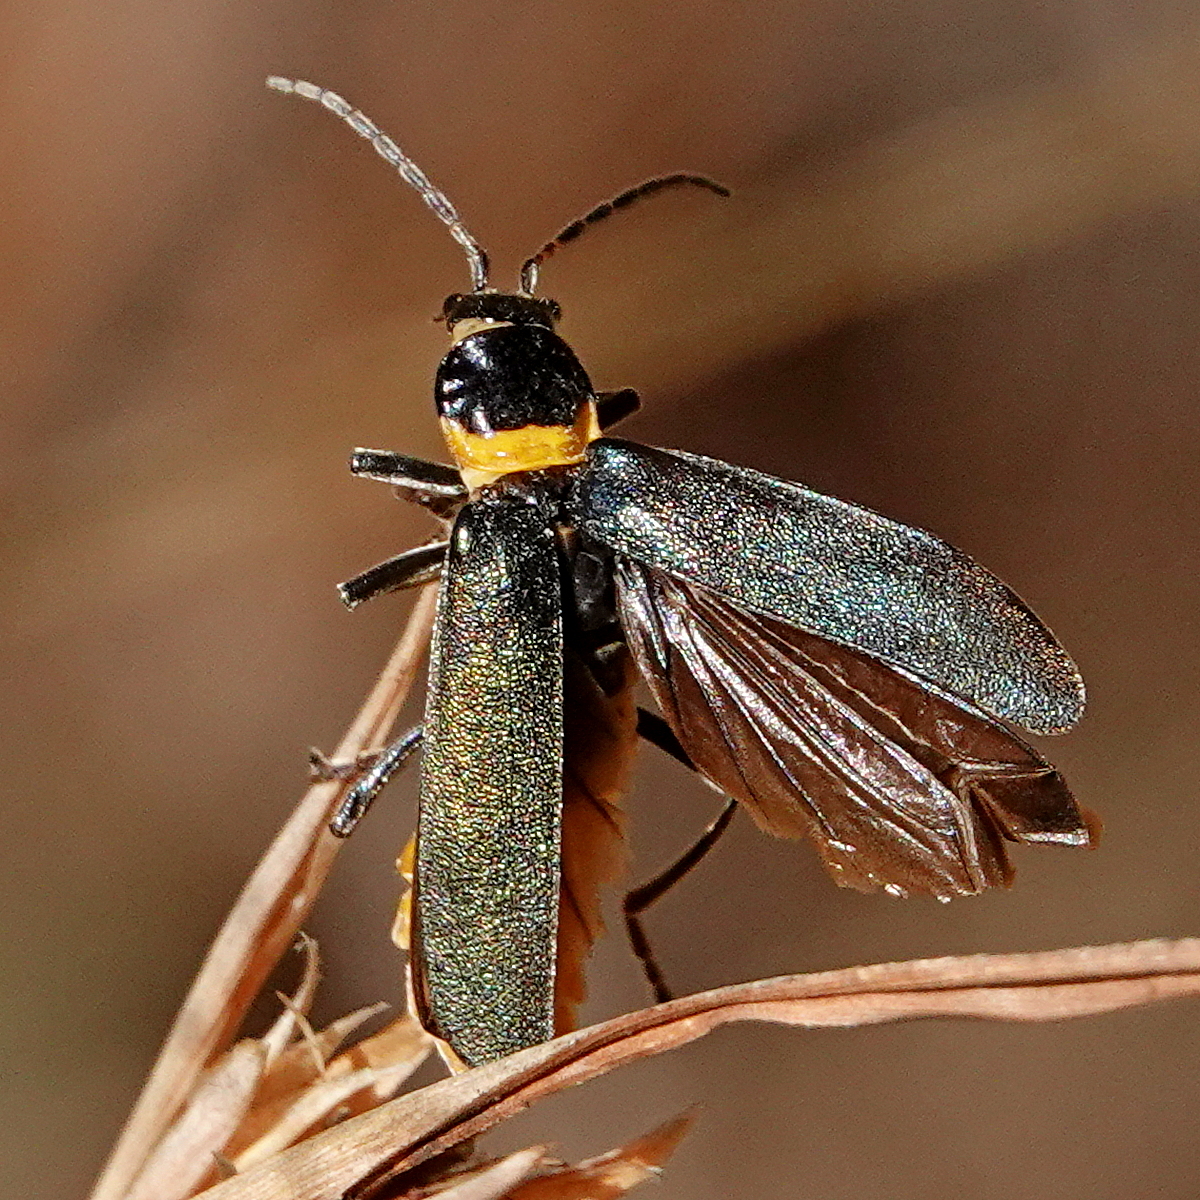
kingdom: Animalia
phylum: Arthropoda
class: Insecta
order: Coleoptera
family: Cantharidae
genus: Chauliognathus
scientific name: Chauliognathus
